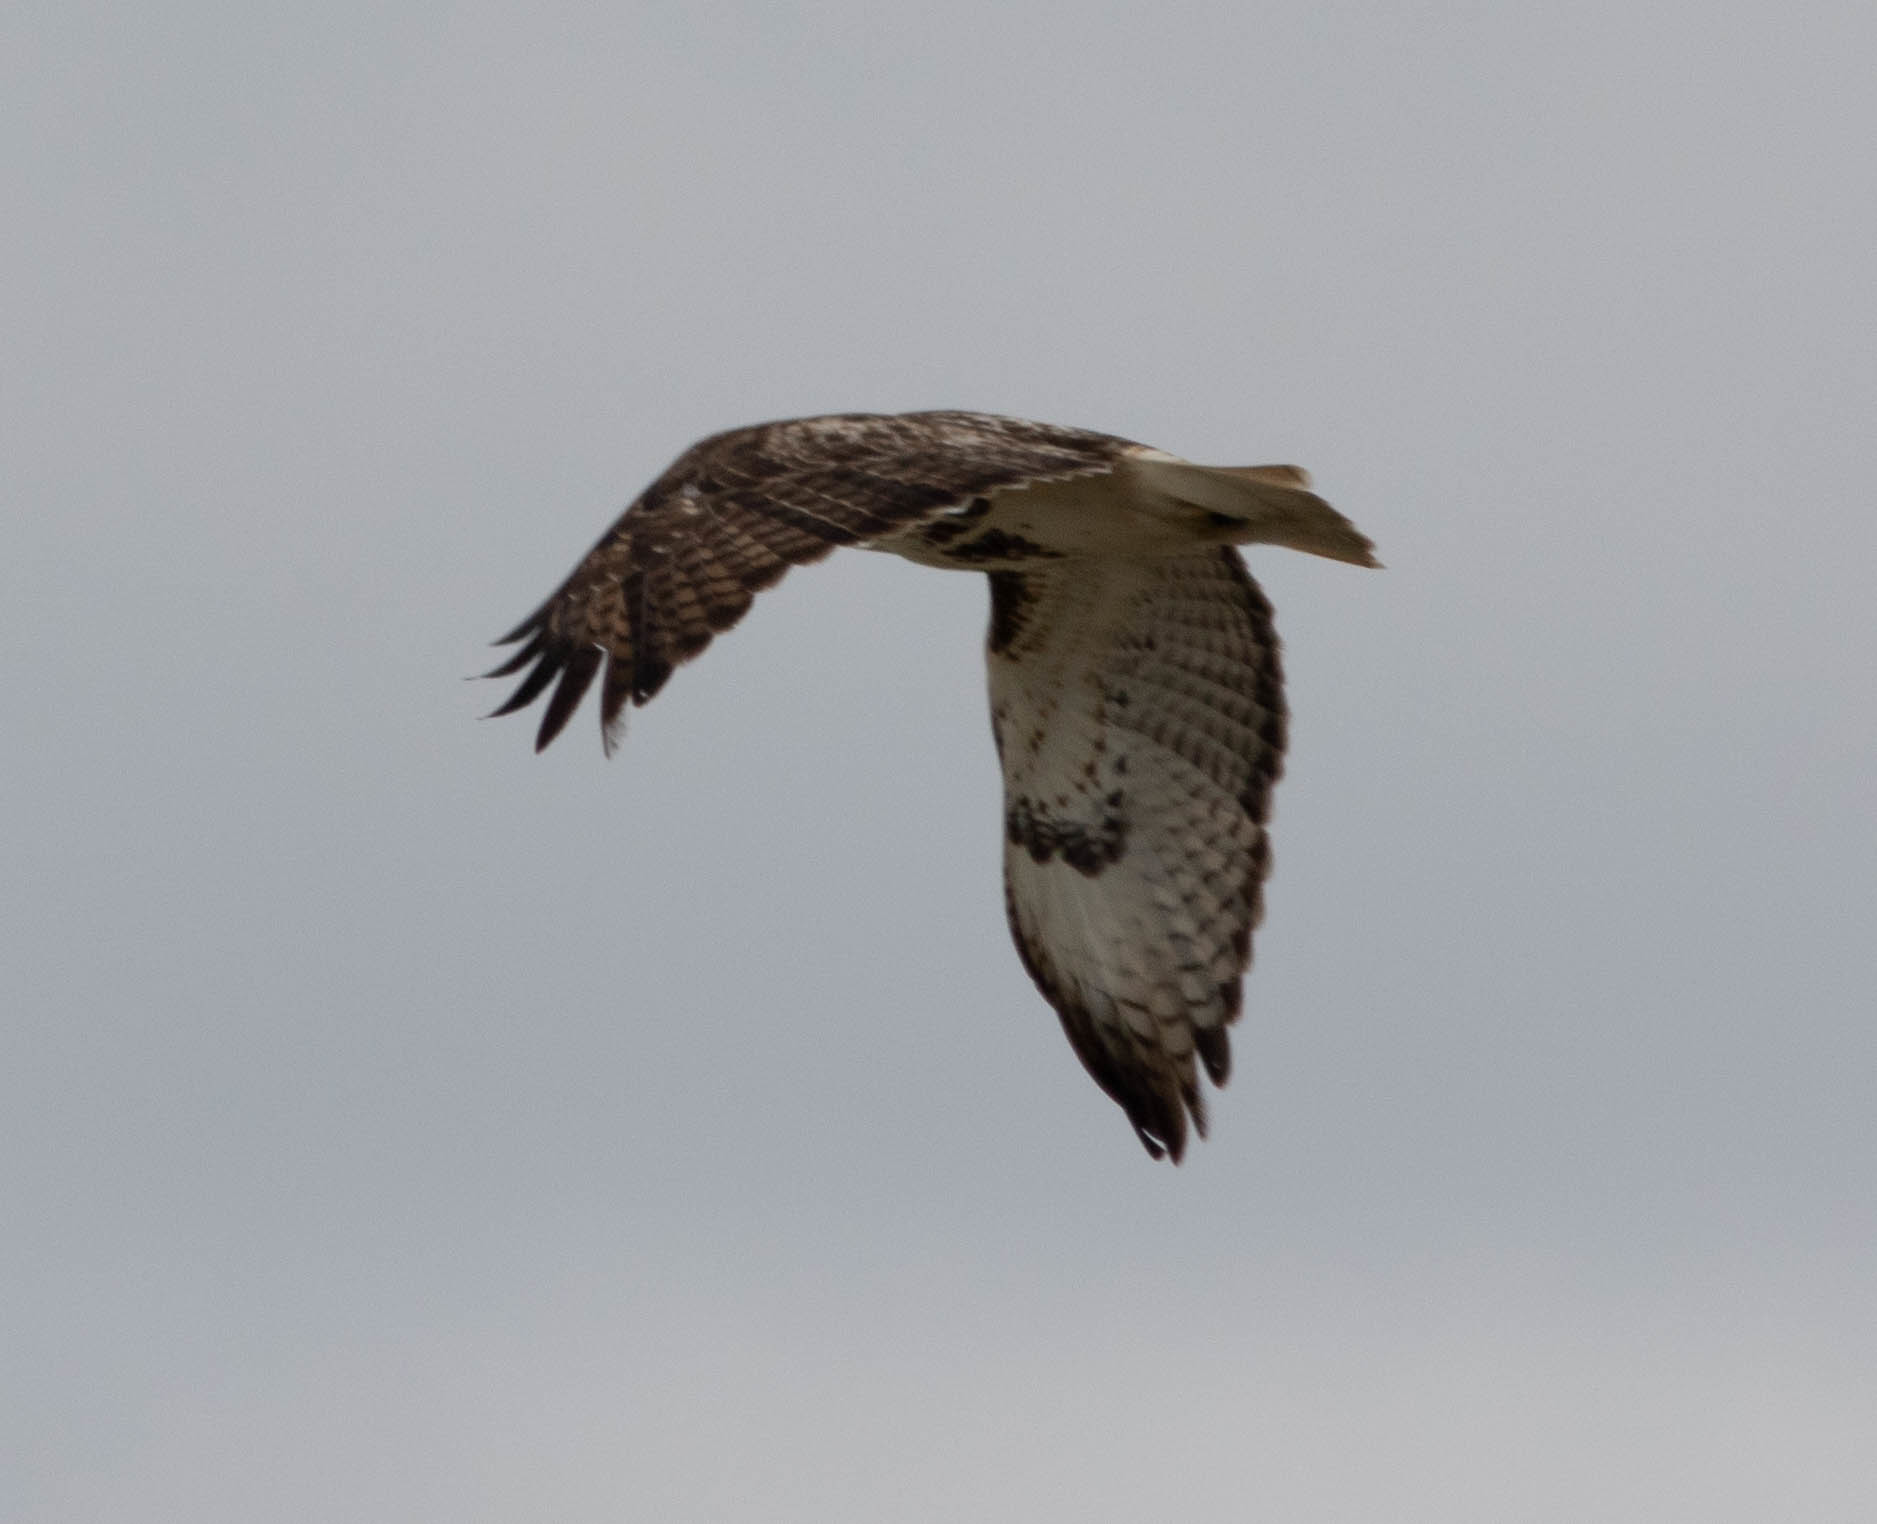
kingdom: Animalia
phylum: Chordata
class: Aves
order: Accipitriformes
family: Accipitridae
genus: Buteo
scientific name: Buteo jamaicensis
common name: Red-tailed hawk
